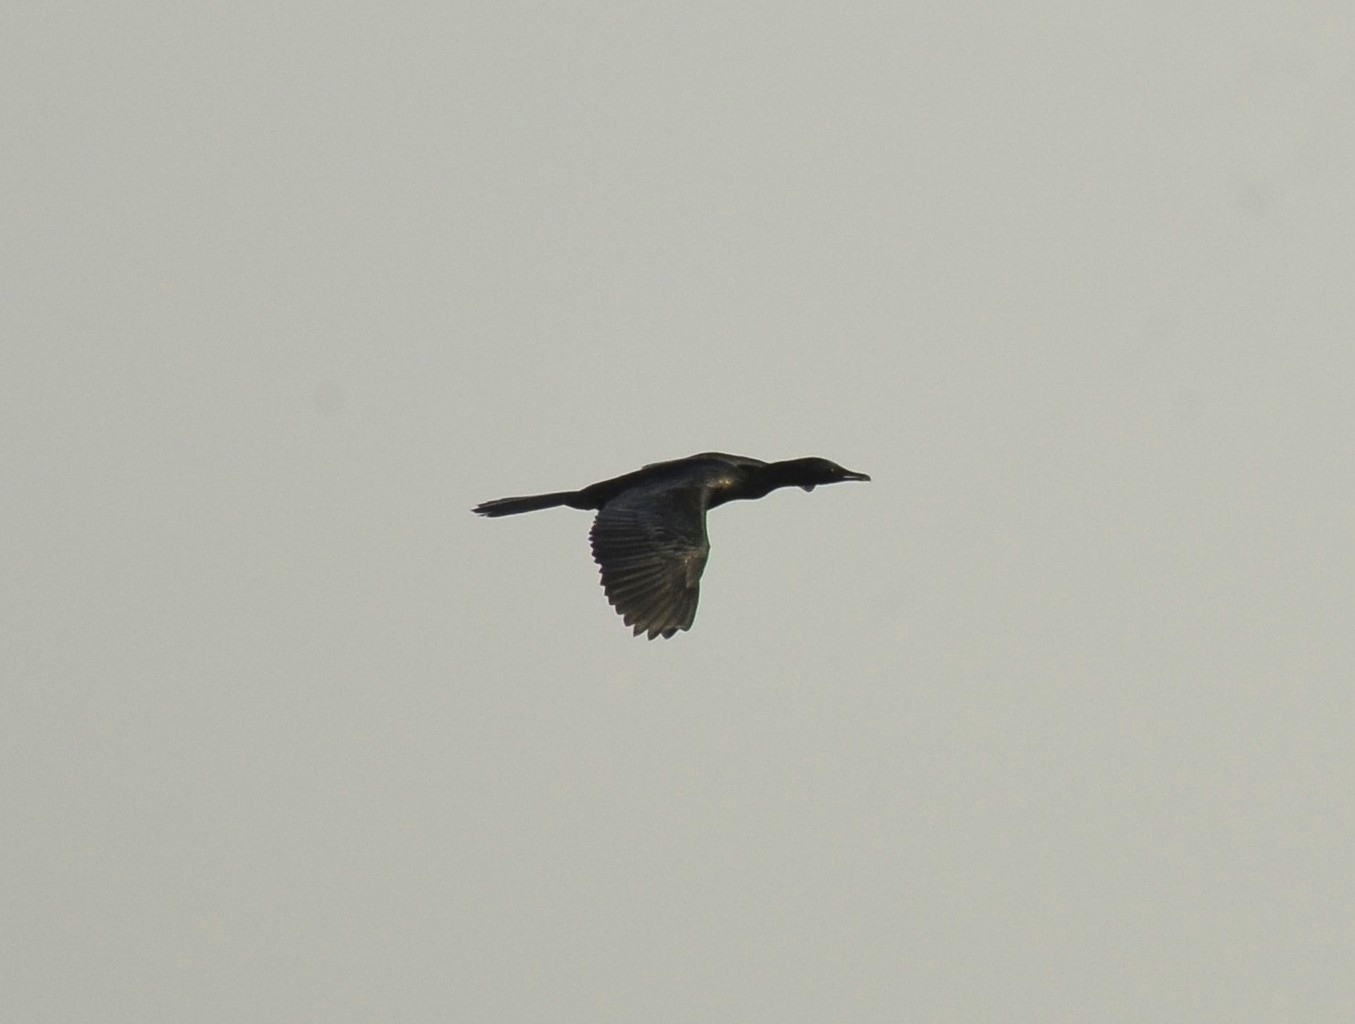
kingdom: Animalia
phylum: Chordata
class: Aves
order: Suliformes
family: Phalacrocoracidae
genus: Microcarbo
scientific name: Microcarbo niger
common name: Little cormorant
